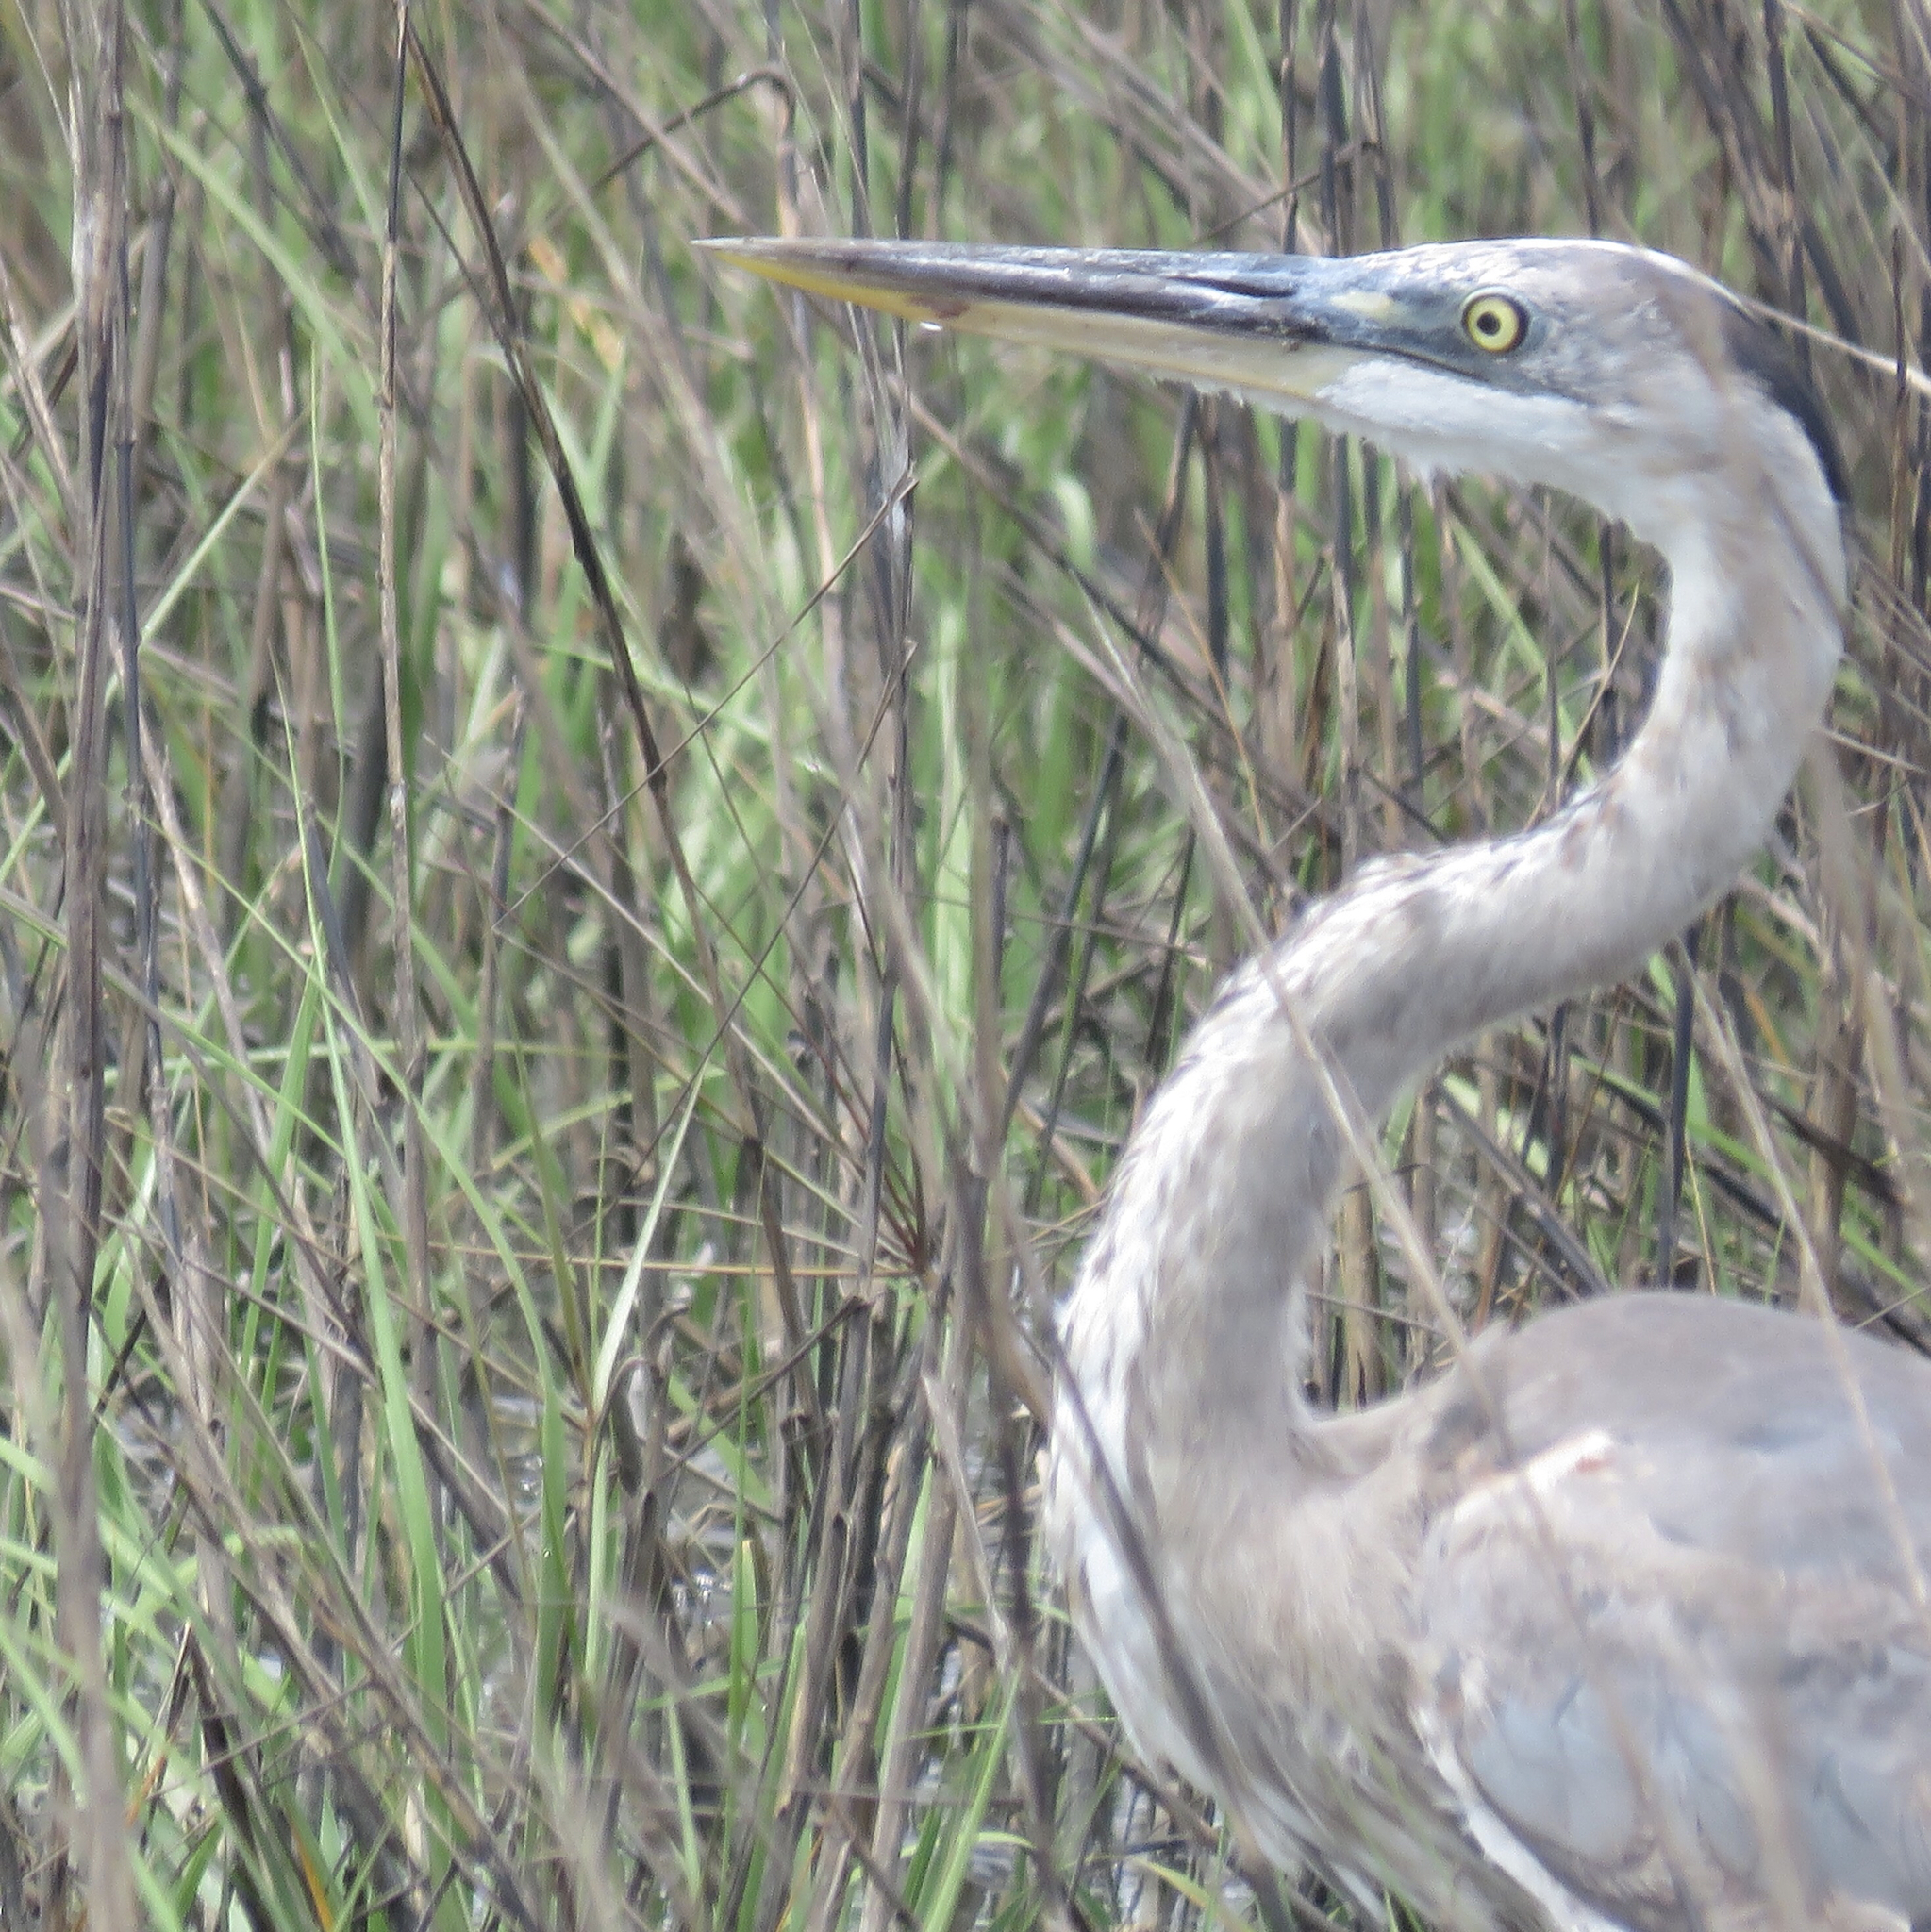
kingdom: Animalia
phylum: Chordata
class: Aves
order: Pelecaniformes
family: Ardeidae
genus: Ardea
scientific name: Ardea herodias
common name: Great blue heron
